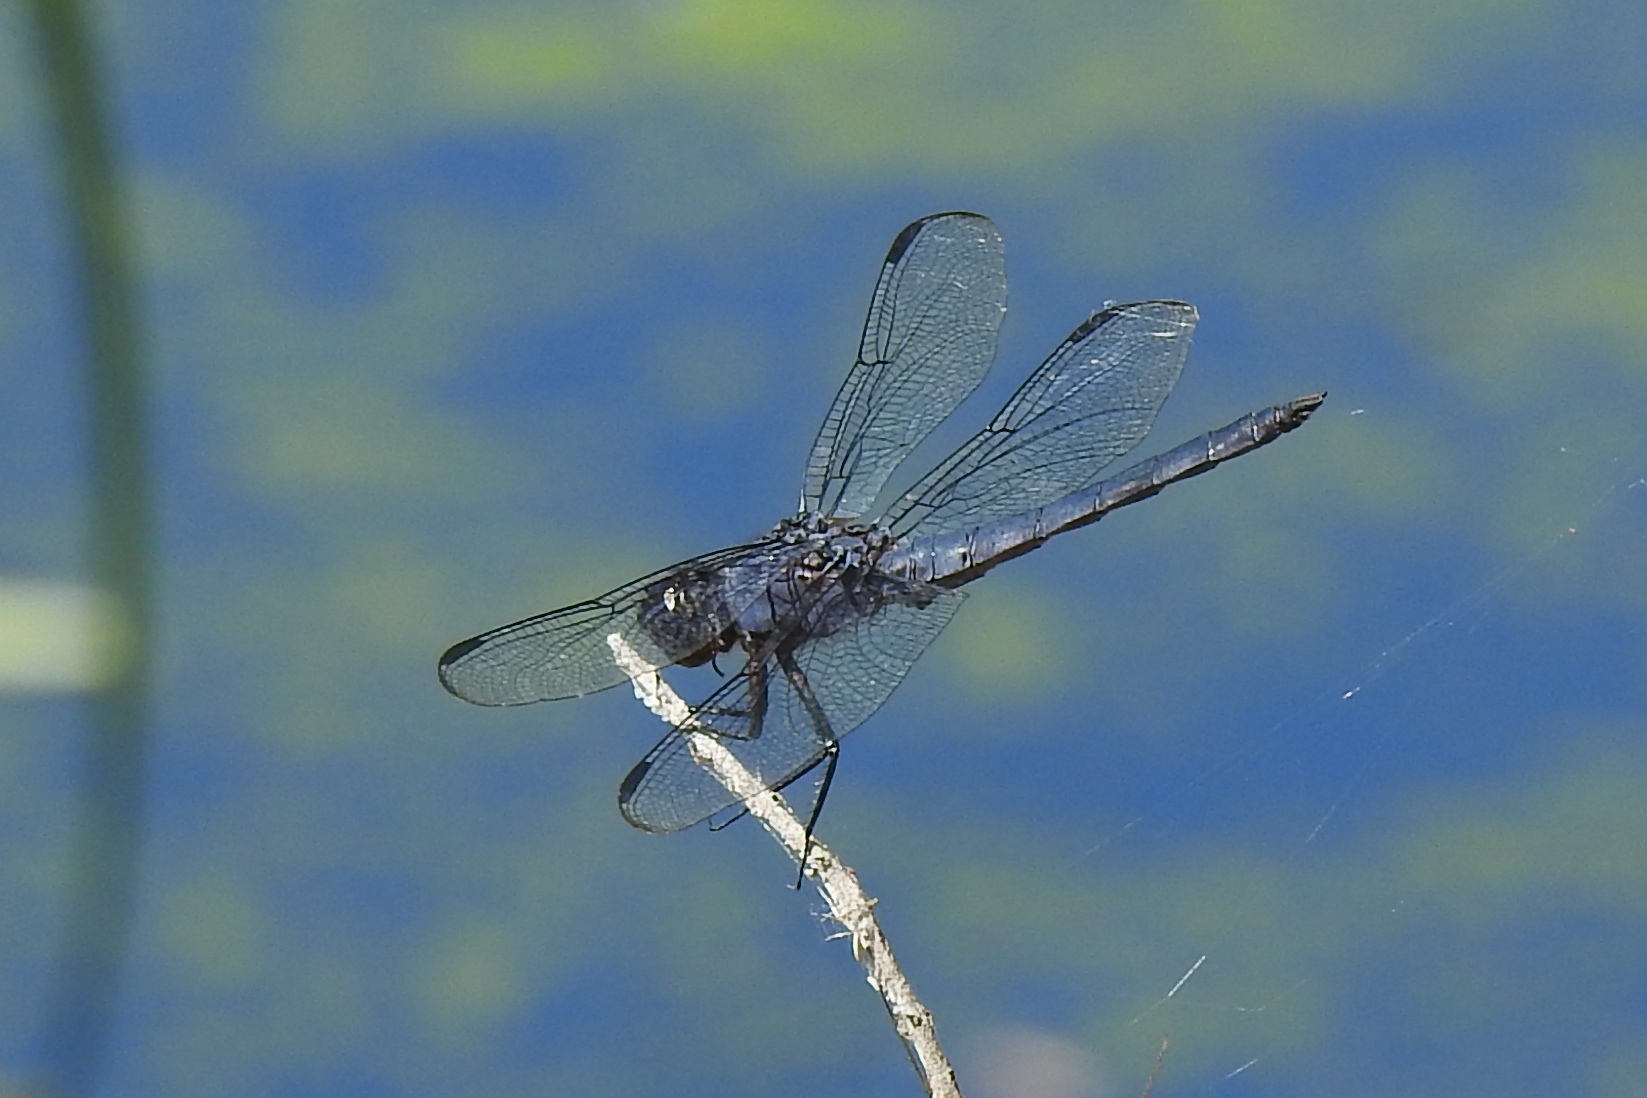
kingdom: Animalia
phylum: Arthropoda
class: Insecta
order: Odonata
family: Libellulidae
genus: Libellula
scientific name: Libellula incesta
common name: Slaty skimmer
